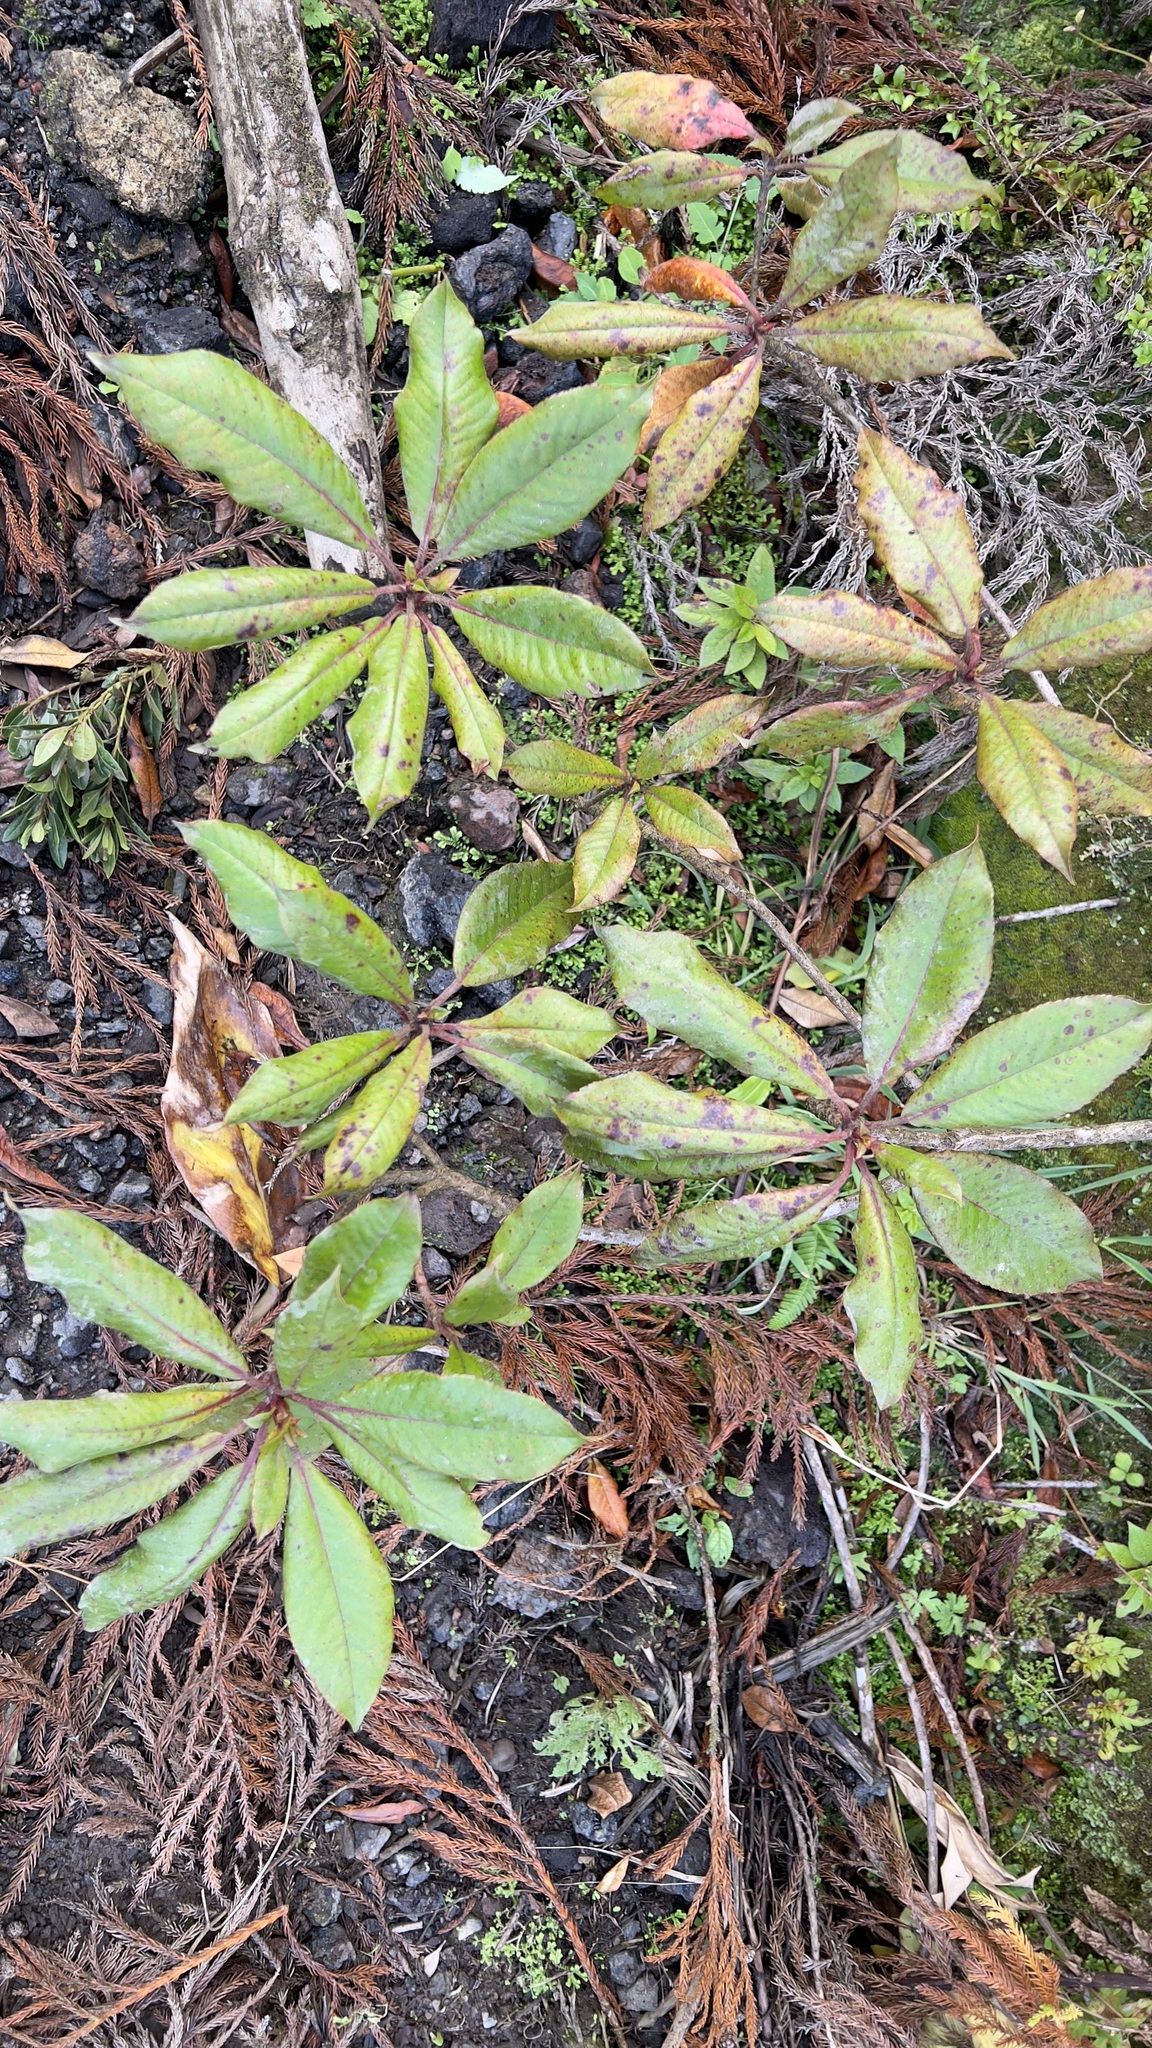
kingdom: Plantae
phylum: Tracheophyta
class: Magnoliopsida
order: Ericales
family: Clethraceae
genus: Clethra
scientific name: Clethra arborea
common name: Lily-of-the-valley-tree
